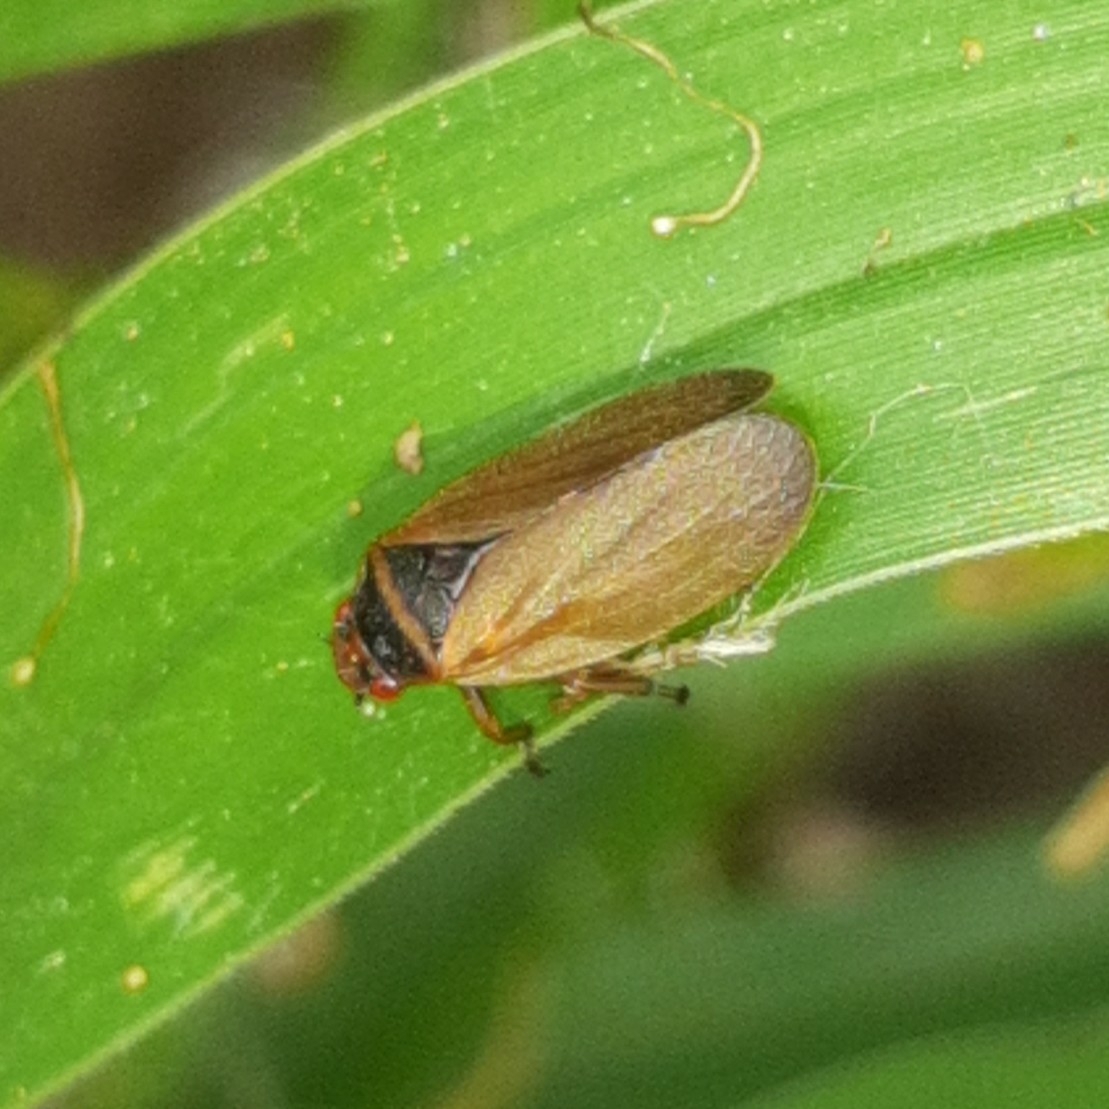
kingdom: Animalia
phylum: Arthropoda
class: Insecta
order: Hemiptera
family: Cercopidae
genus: Prosapia
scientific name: Prosapia plagiata
